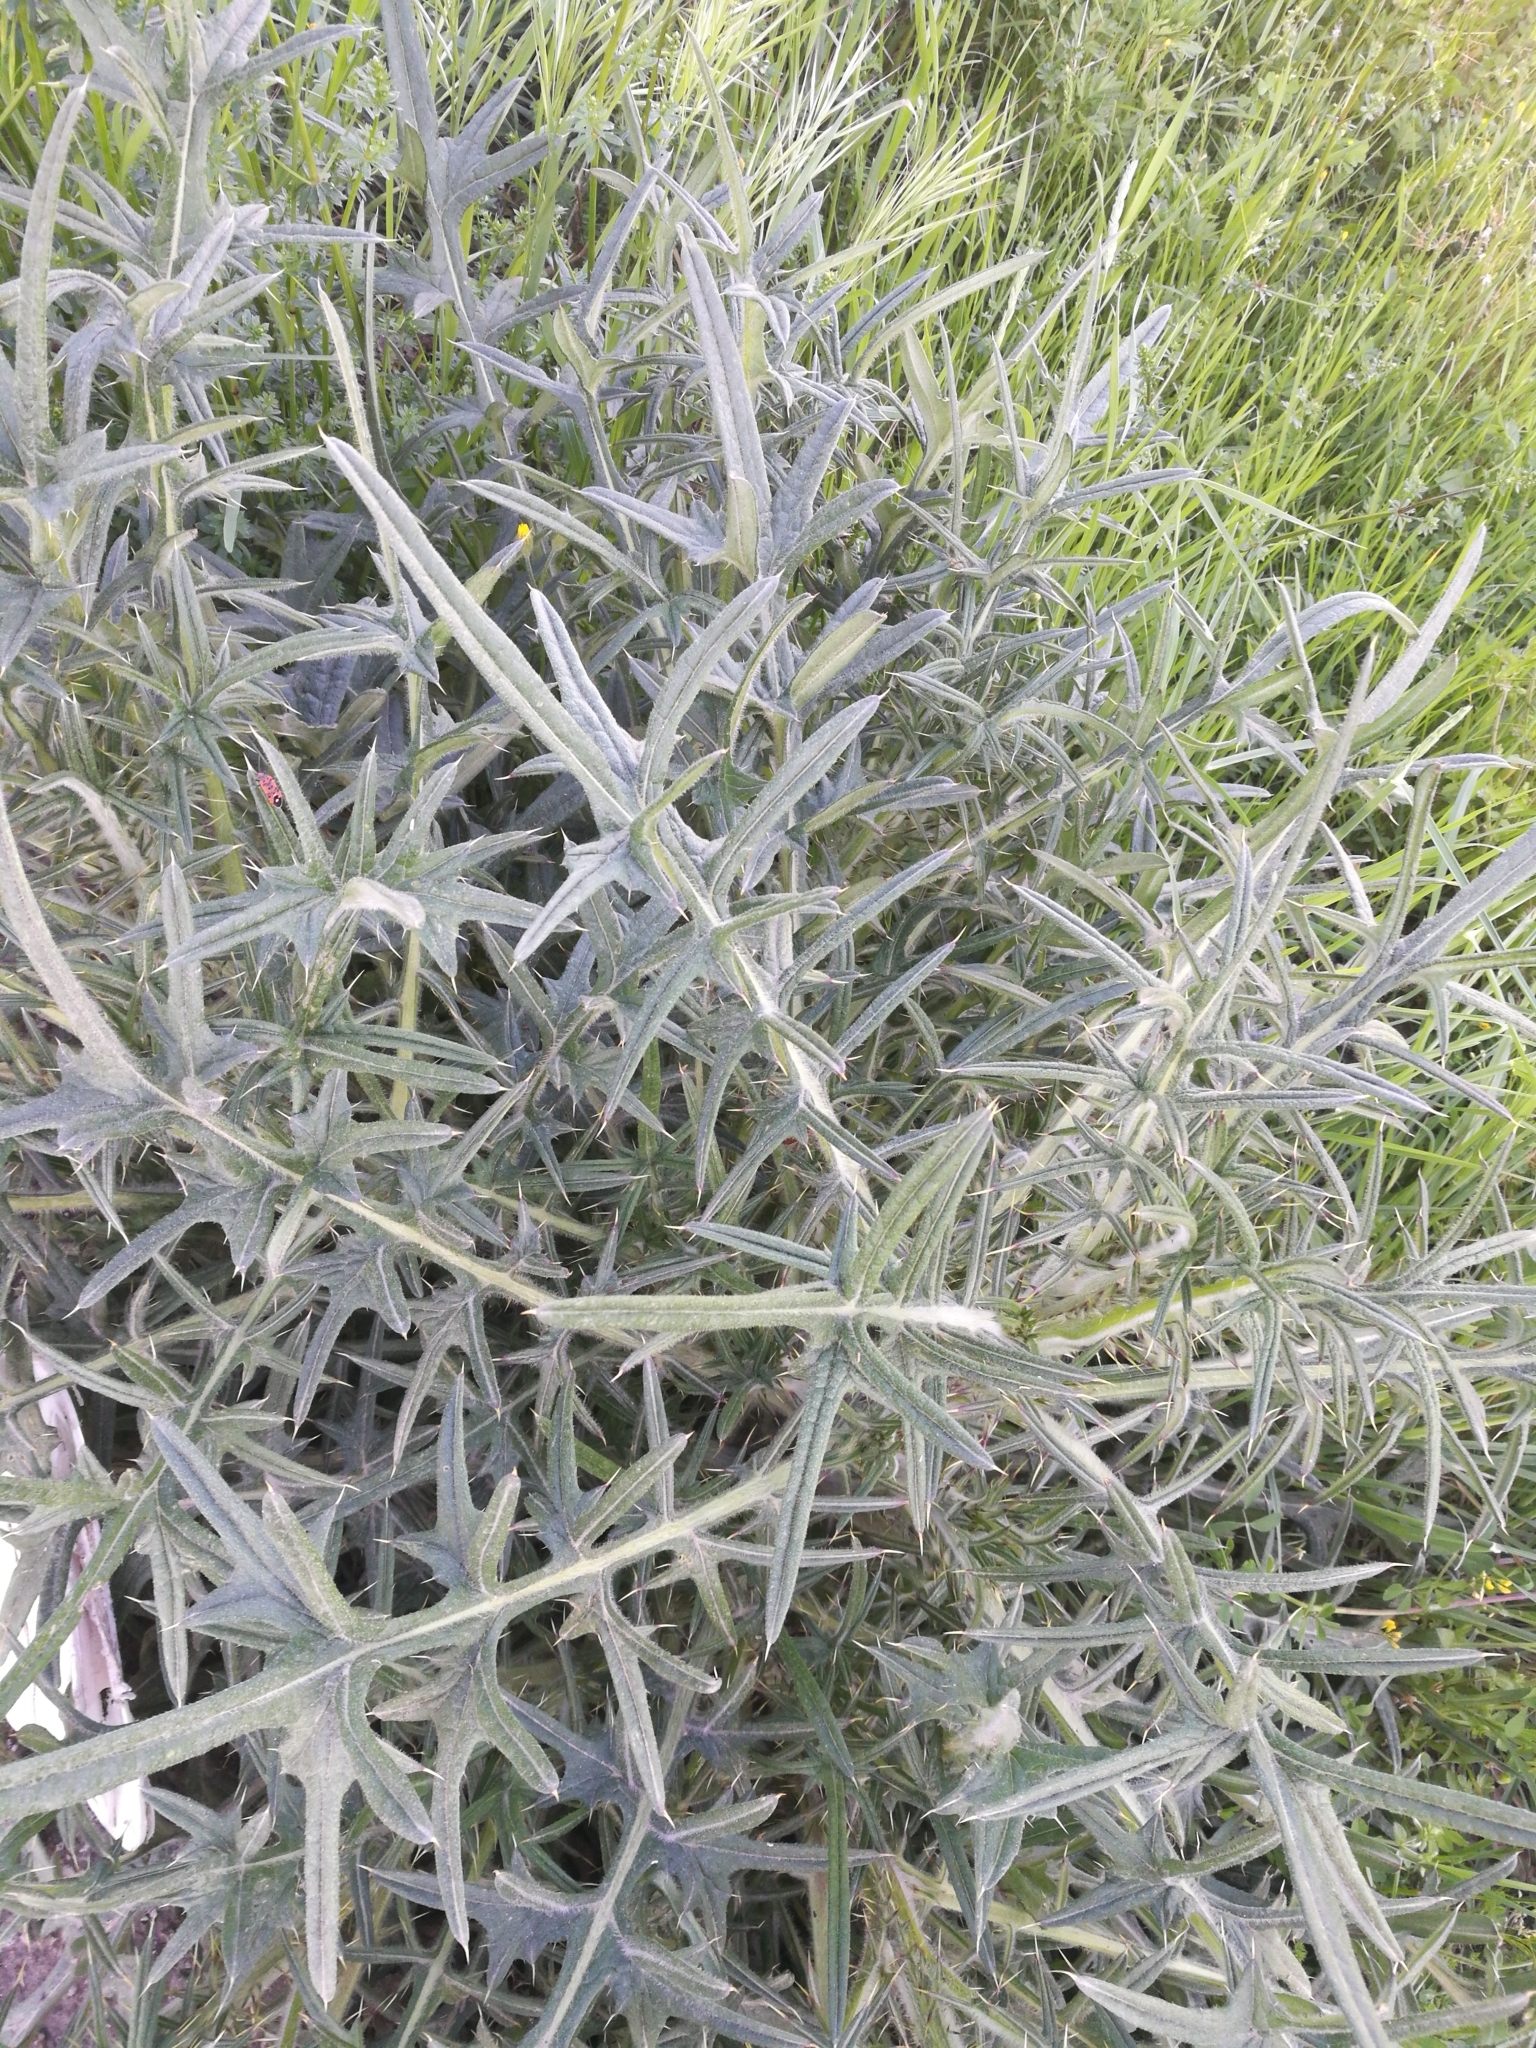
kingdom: Plantae
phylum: Tracheophyta
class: Magnoliopsida
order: Asterales
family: Asteraceae
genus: Cirsium
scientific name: Cirsium vulgare
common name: Bull thistle
